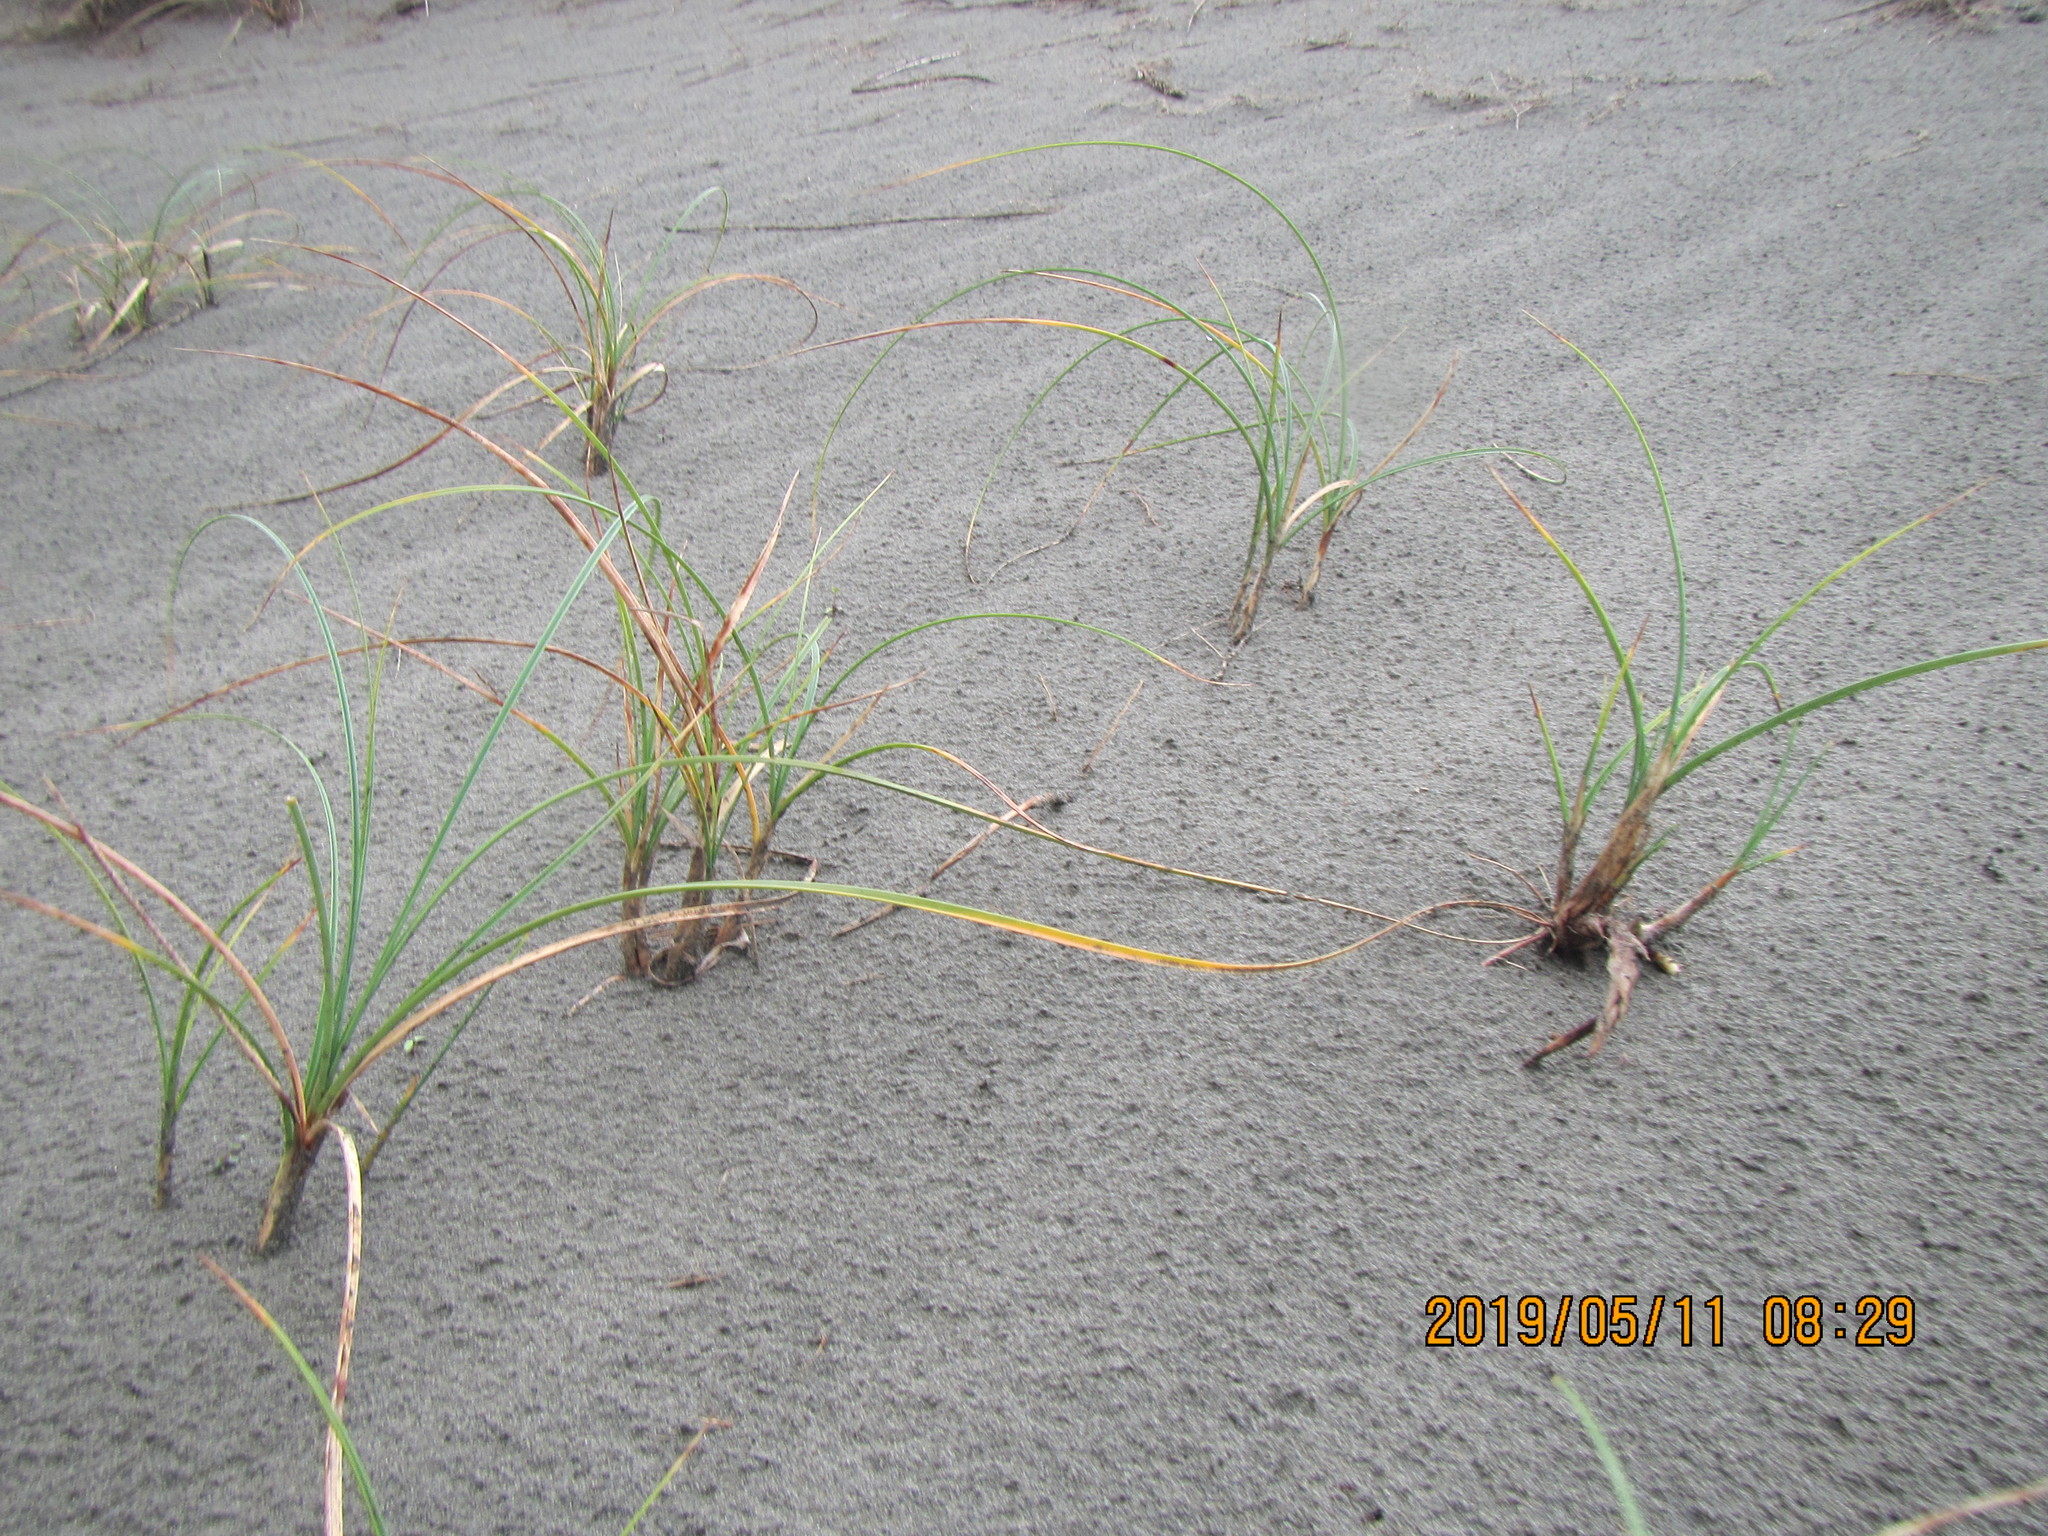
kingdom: Plantae
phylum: Tracheophyta
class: Liliopsida
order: Poales
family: Cyperaceae
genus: Carex
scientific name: Carex pumila
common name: Dwarf sedge
